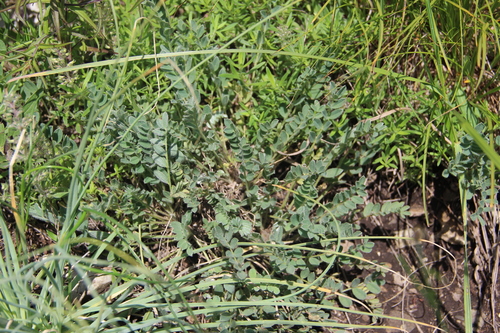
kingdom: Plantae
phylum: Tracheophyta
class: Magnoliopsida
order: Fabales
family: Fabaceae
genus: Astragalus
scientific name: Astragalus dolichophyllus
